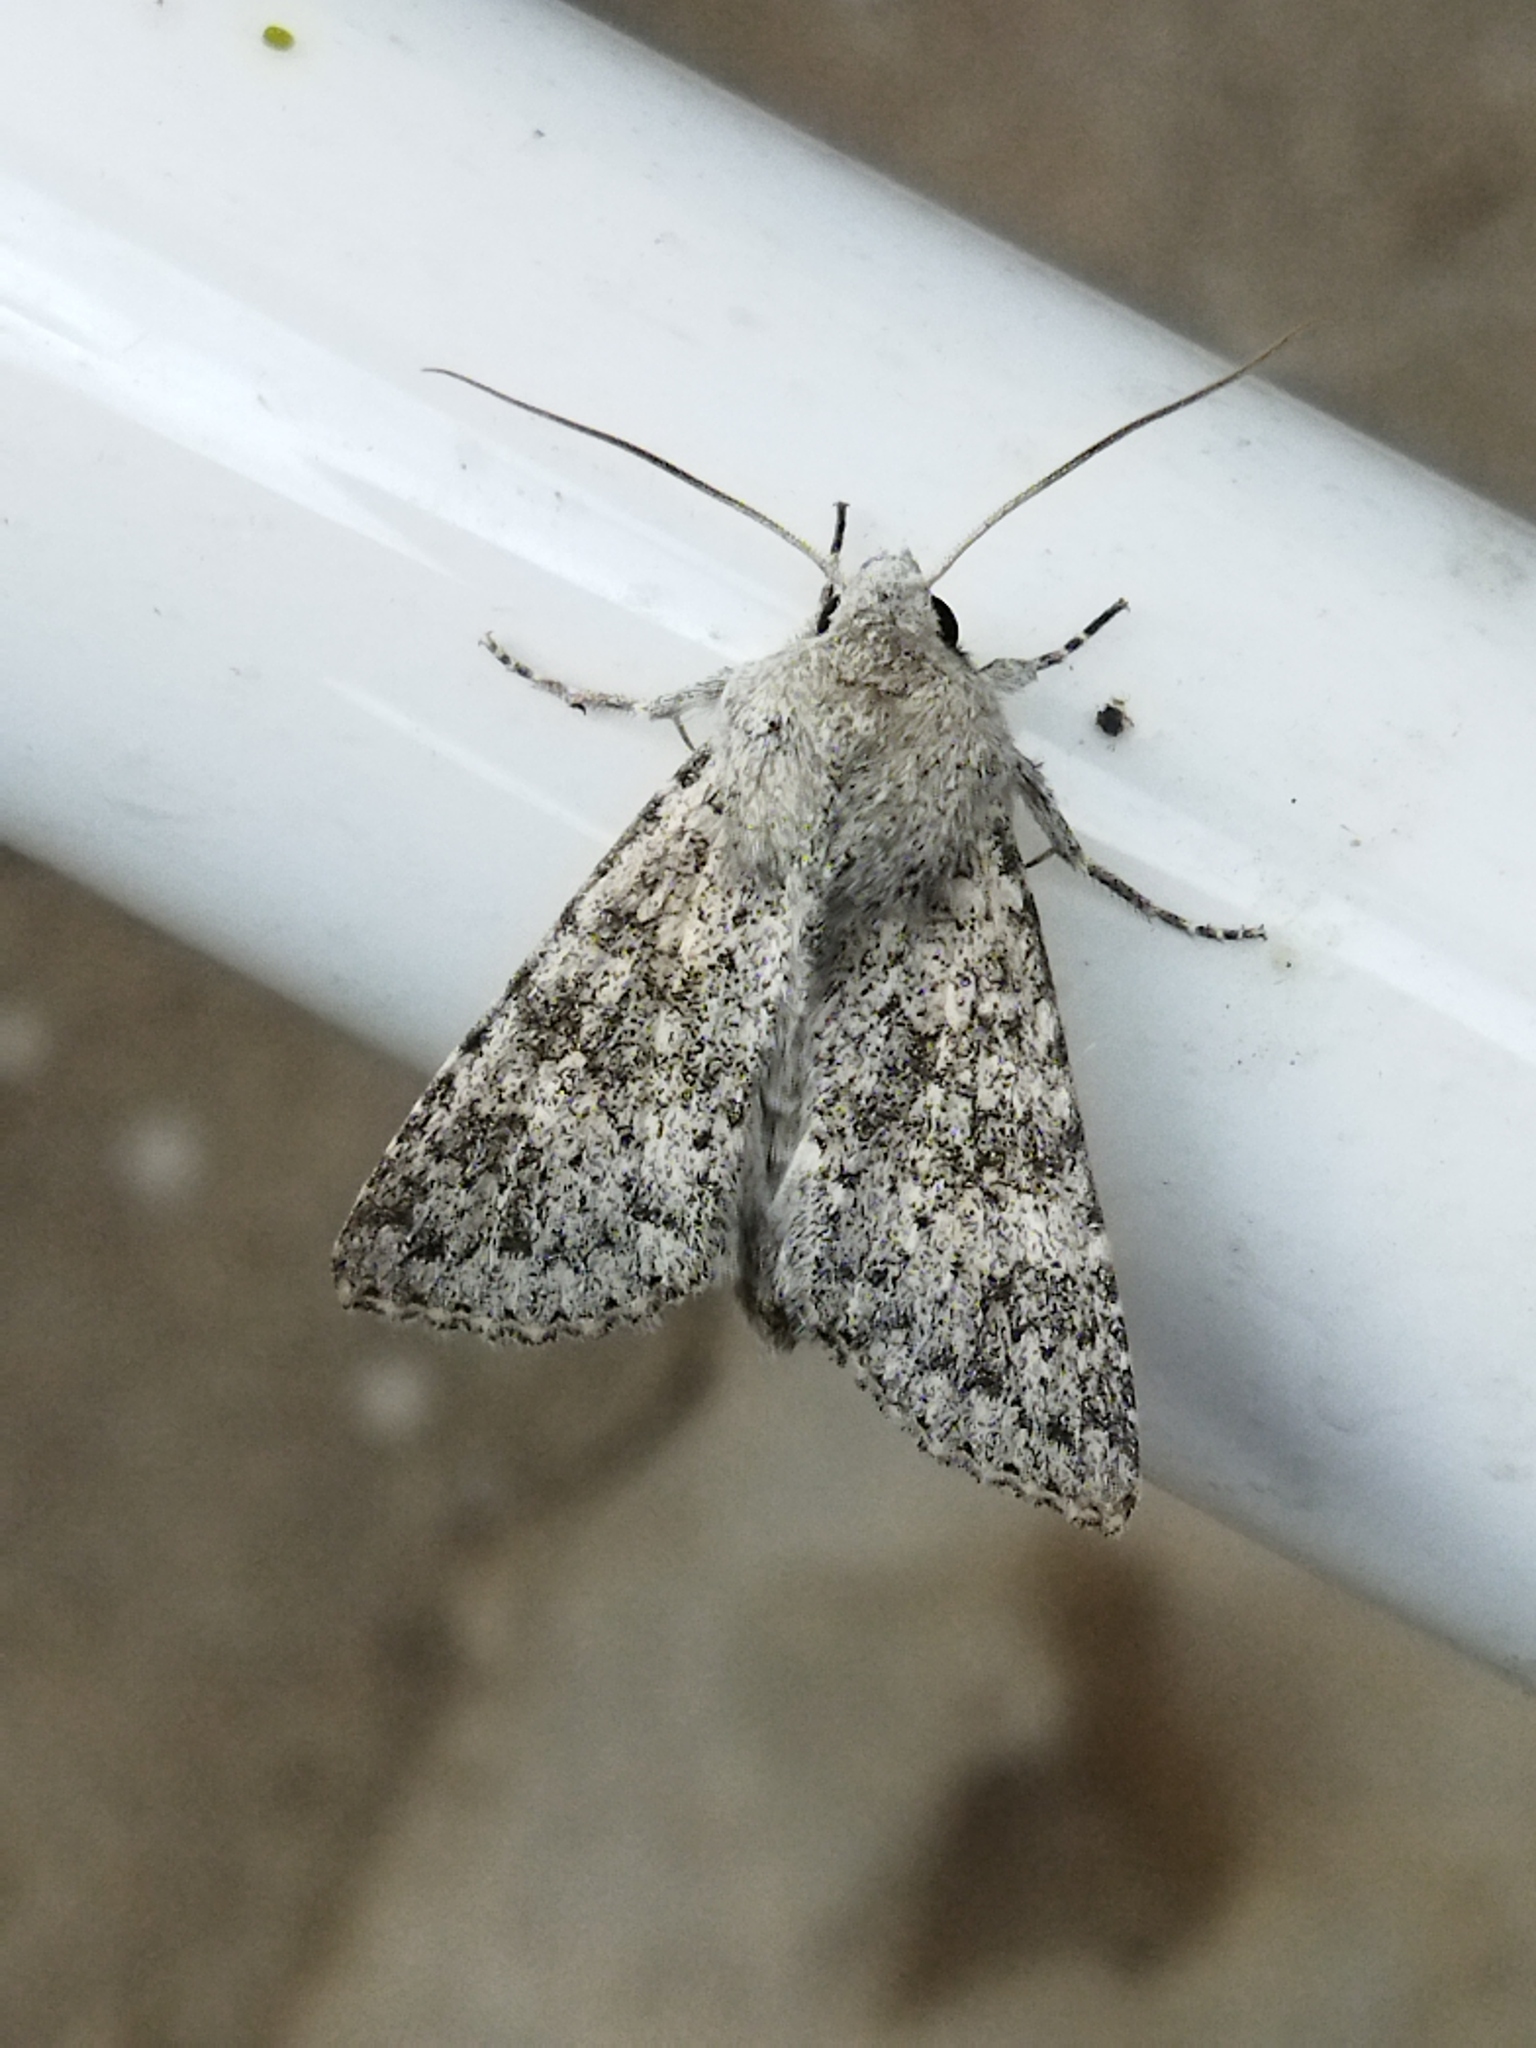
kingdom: Animalia
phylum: Arthropoda
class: Insecta
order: Lepidoptera
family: Noctuidae
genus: Aporophyla
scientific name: Aporophyla canescens
